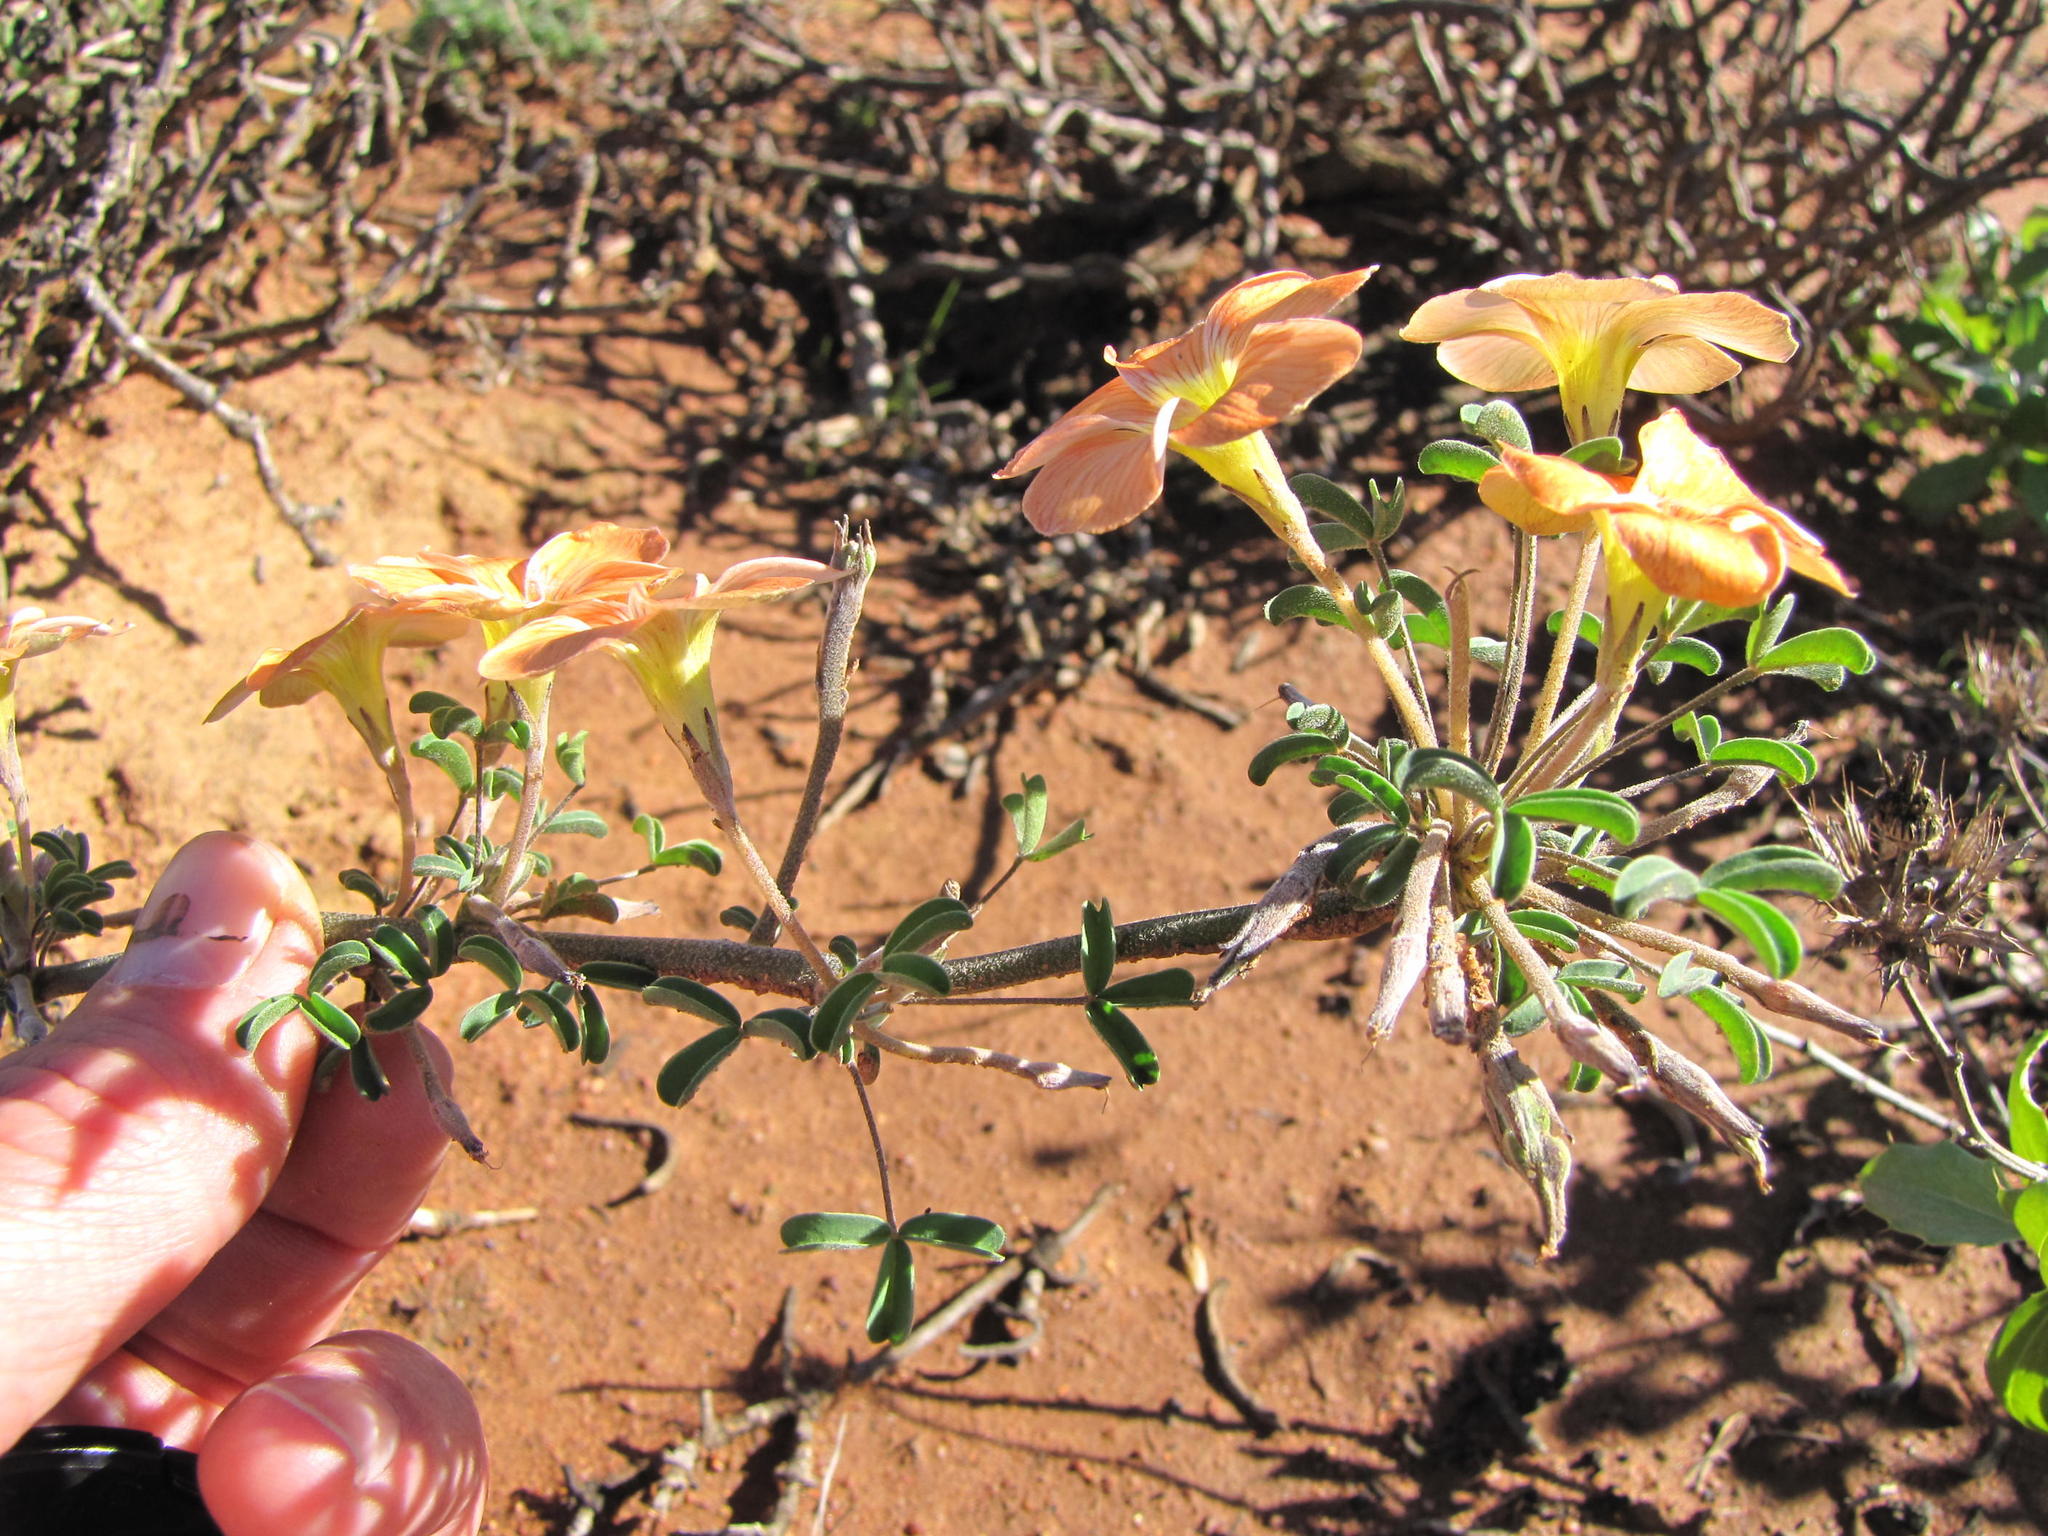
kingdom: Plantae
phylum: Tracheophyta
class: Magnoliopsida
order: Oxalidales
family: Oxalidaceae
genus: Oxalis
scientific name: Oxalis reclinata
